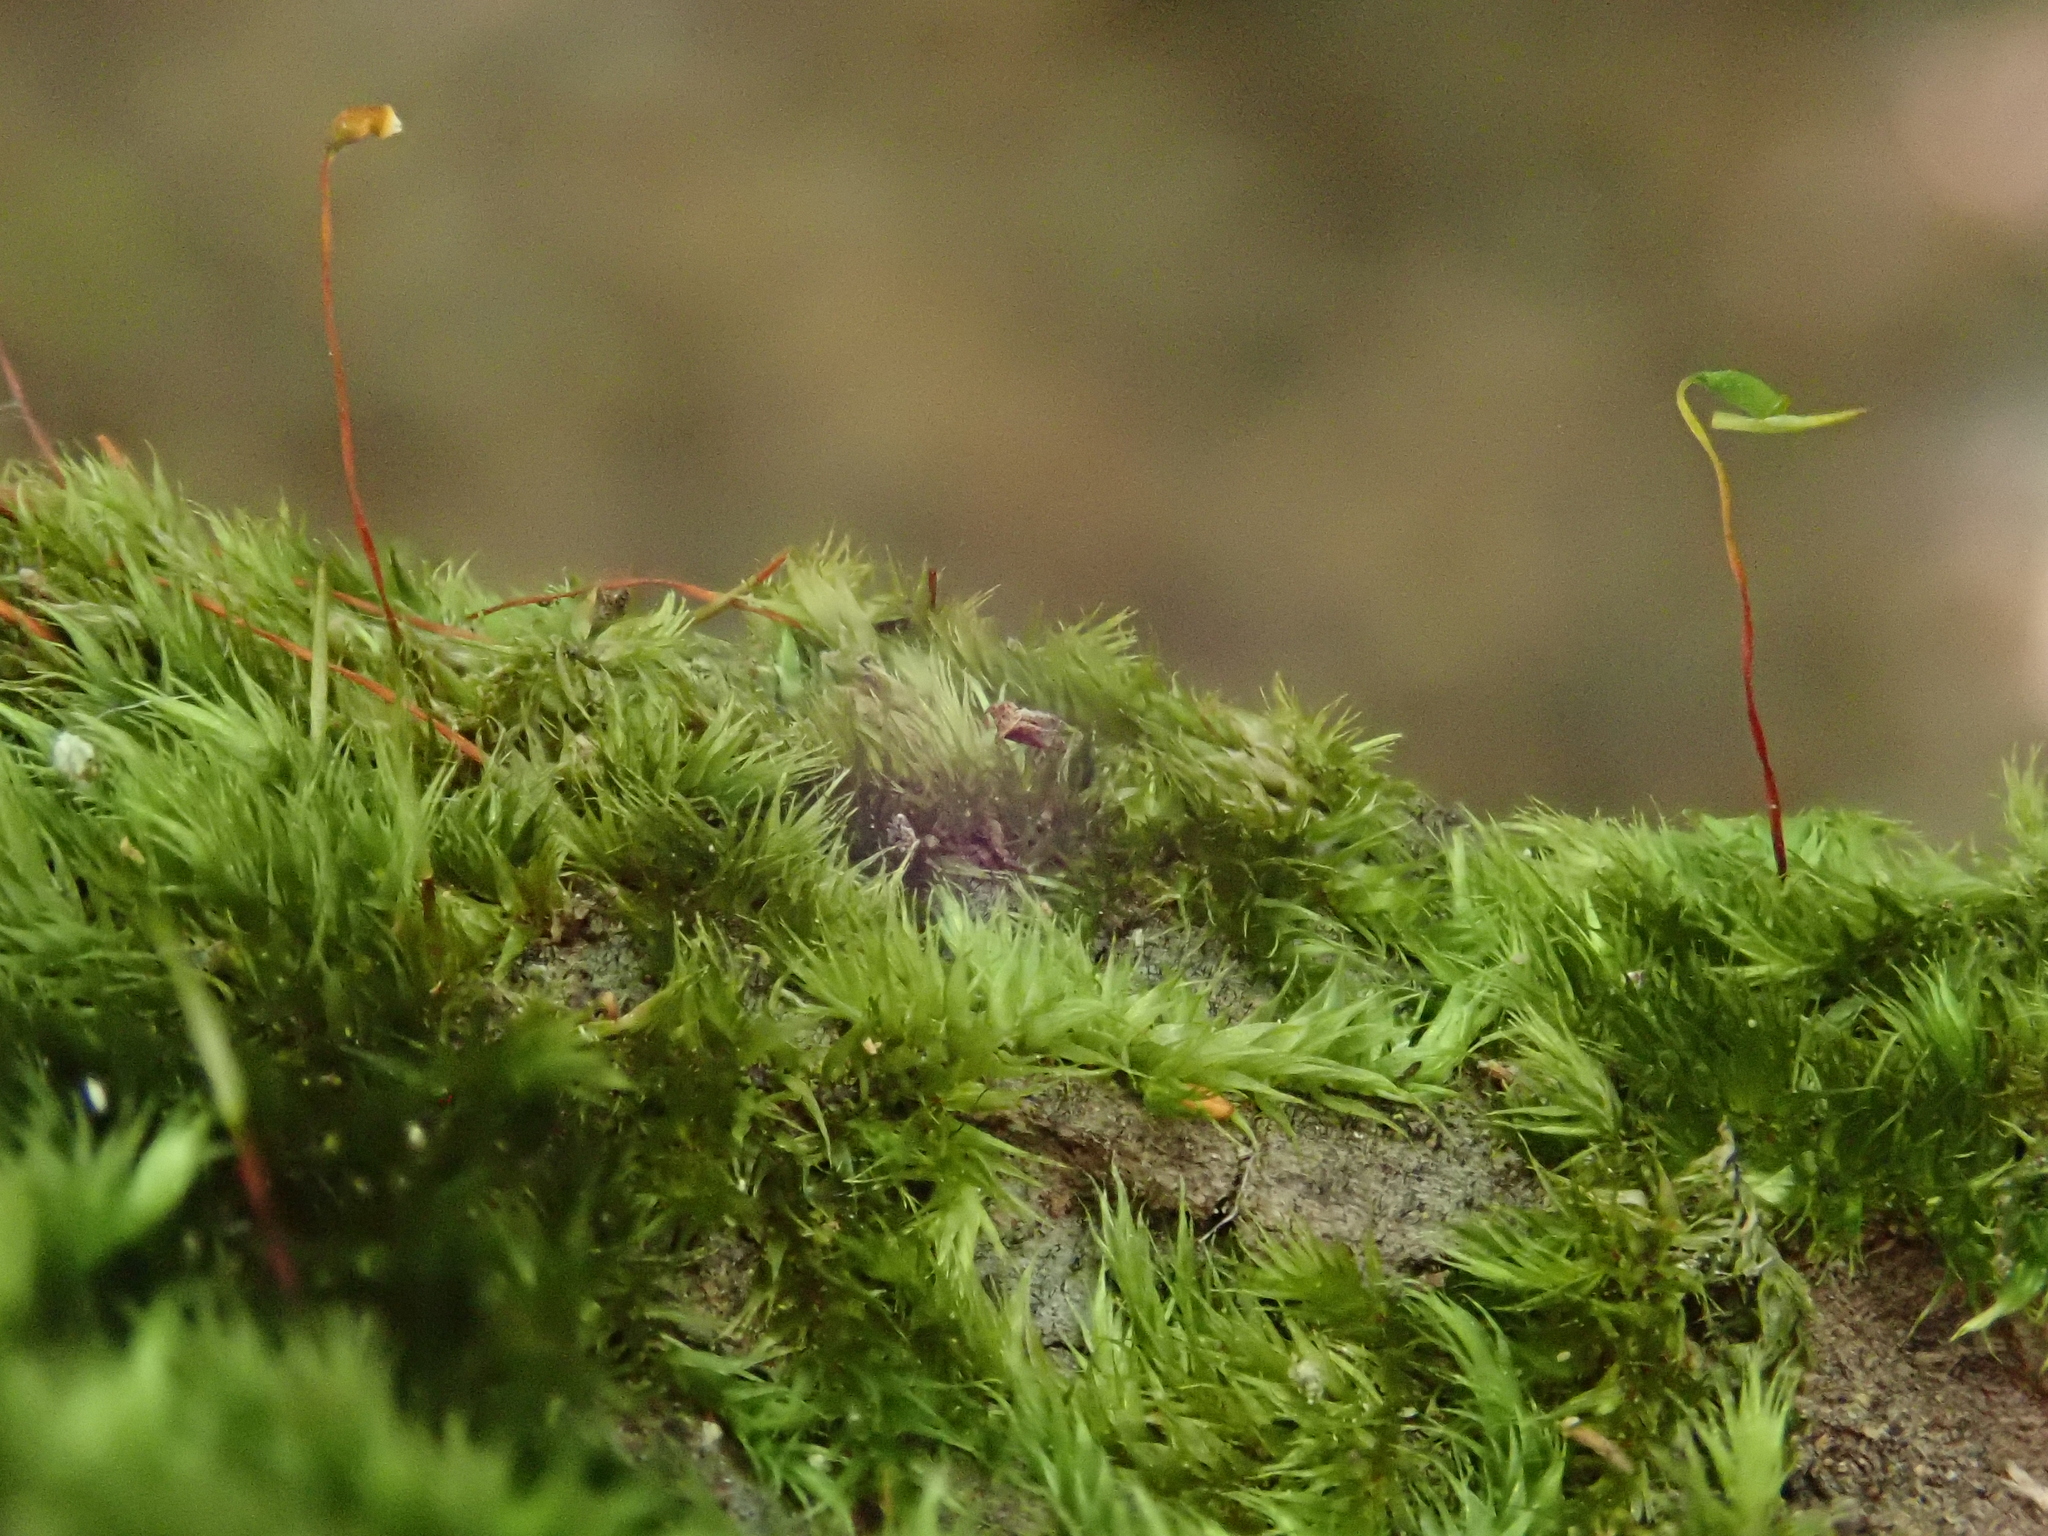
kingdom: Plantae
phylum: Bryophyta
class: Bryopsida
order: Hypnales
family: Sematophyllaceae
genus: Sematophyllum
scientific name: Sematophyllum substrumulosum
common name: Bark signal-moss
